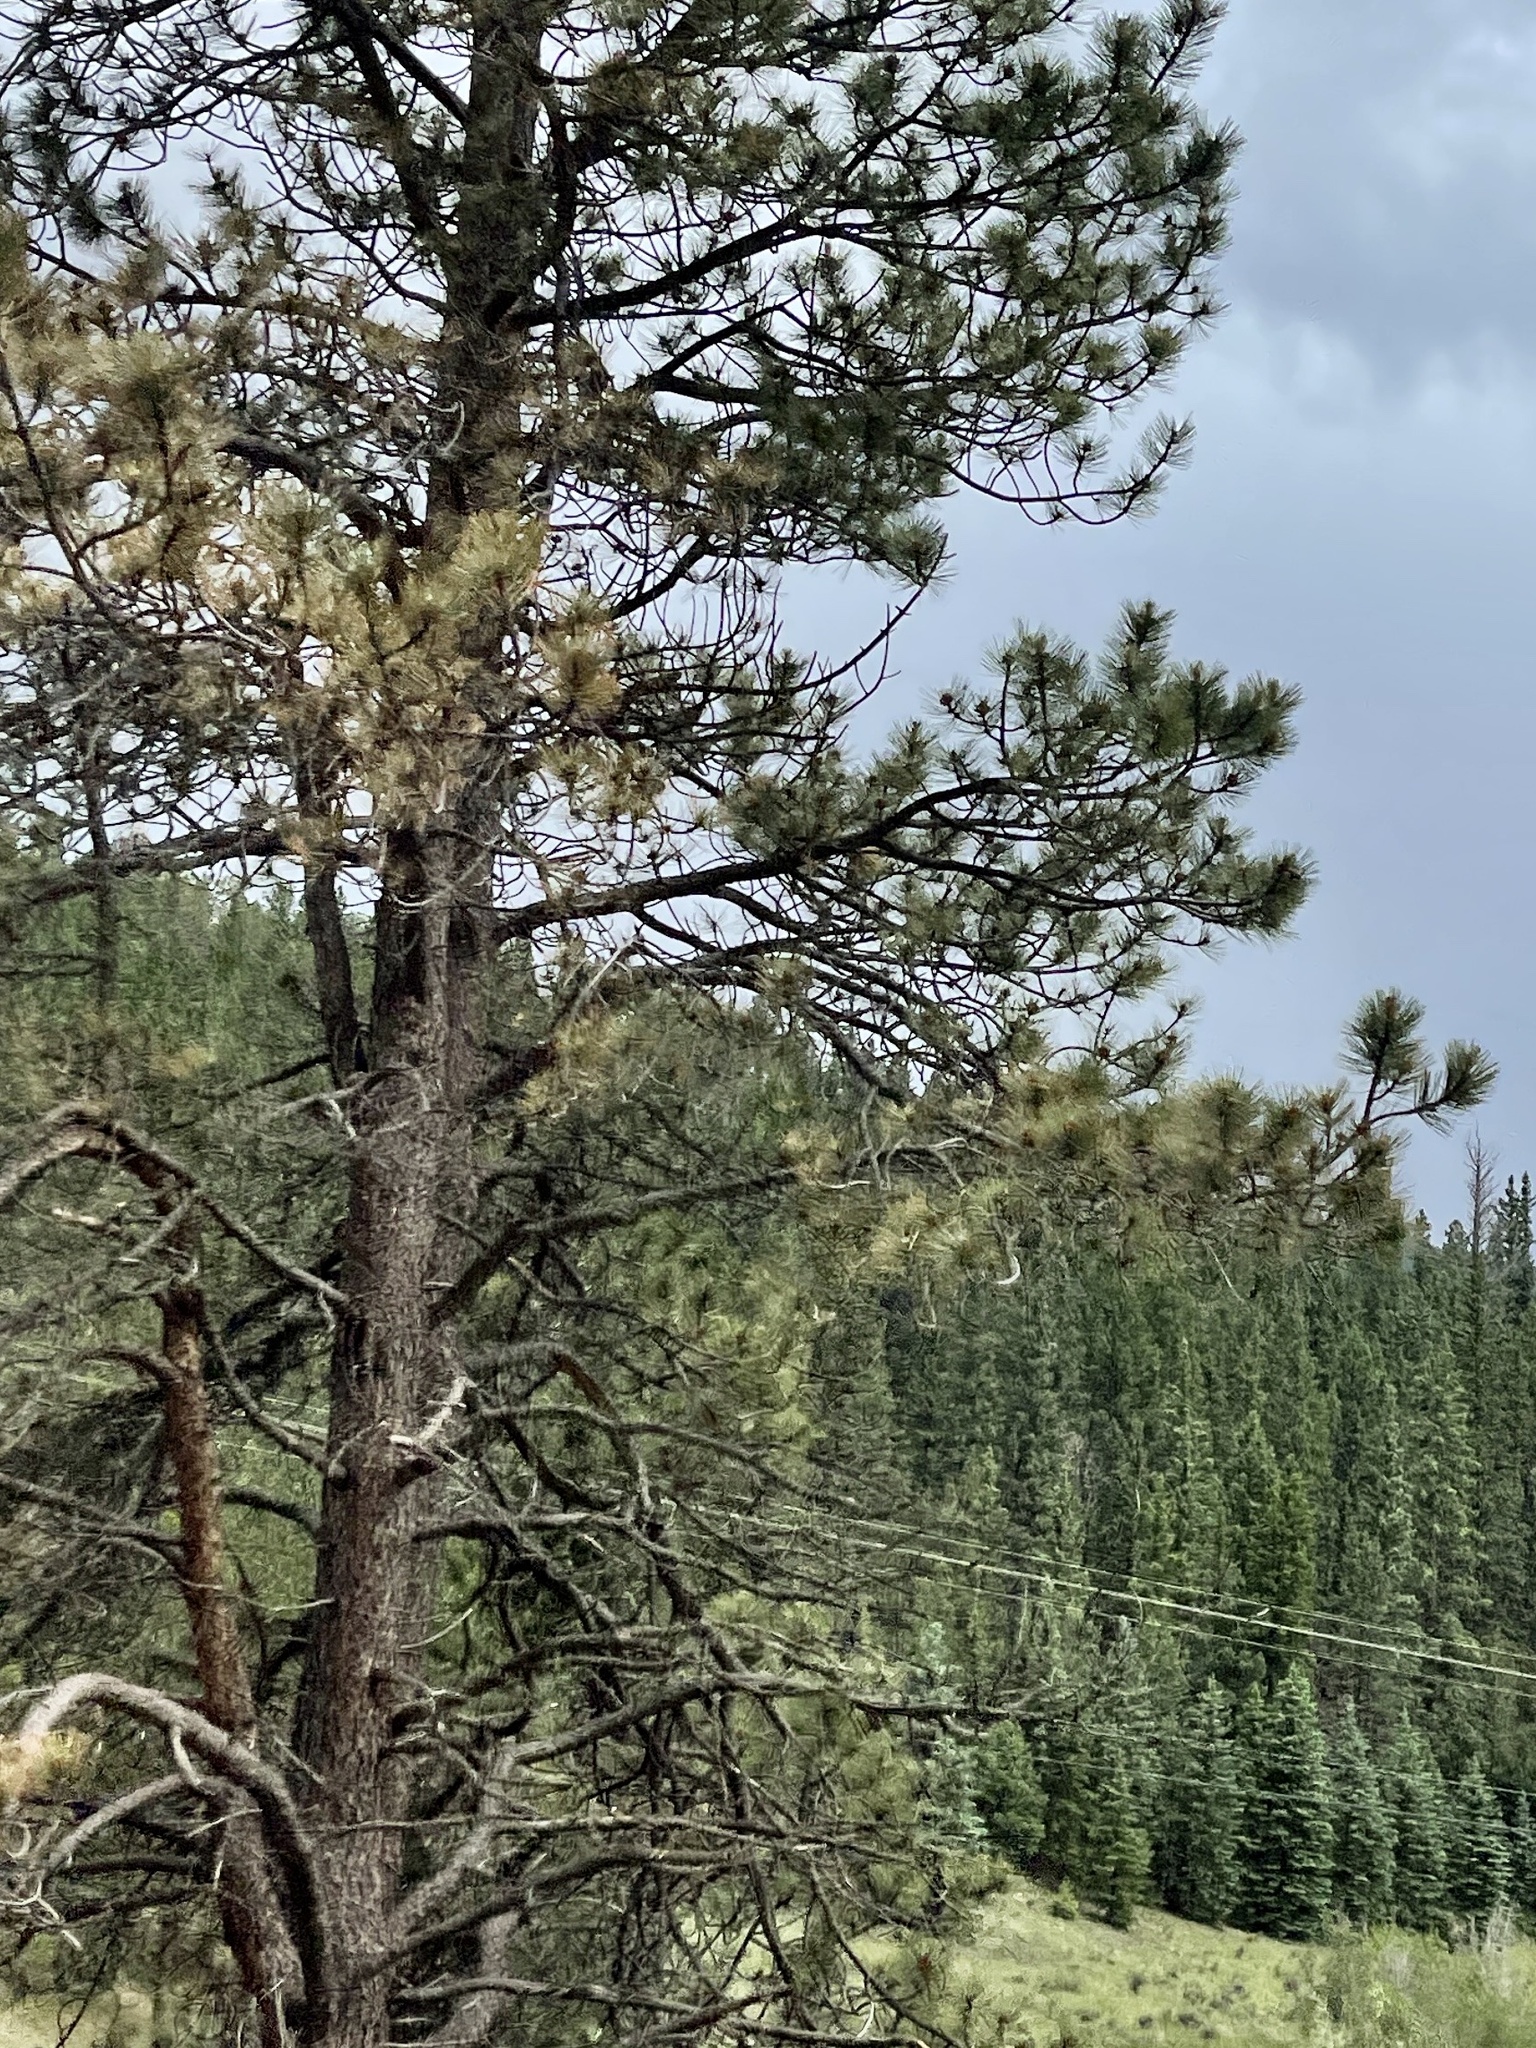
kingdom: Plantae
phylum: Tracheophyta
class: Pinopsida
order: Pinales
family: Pinaceae
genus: Pinus
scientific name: Pinus ponderosa
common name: Western yellow-pine
